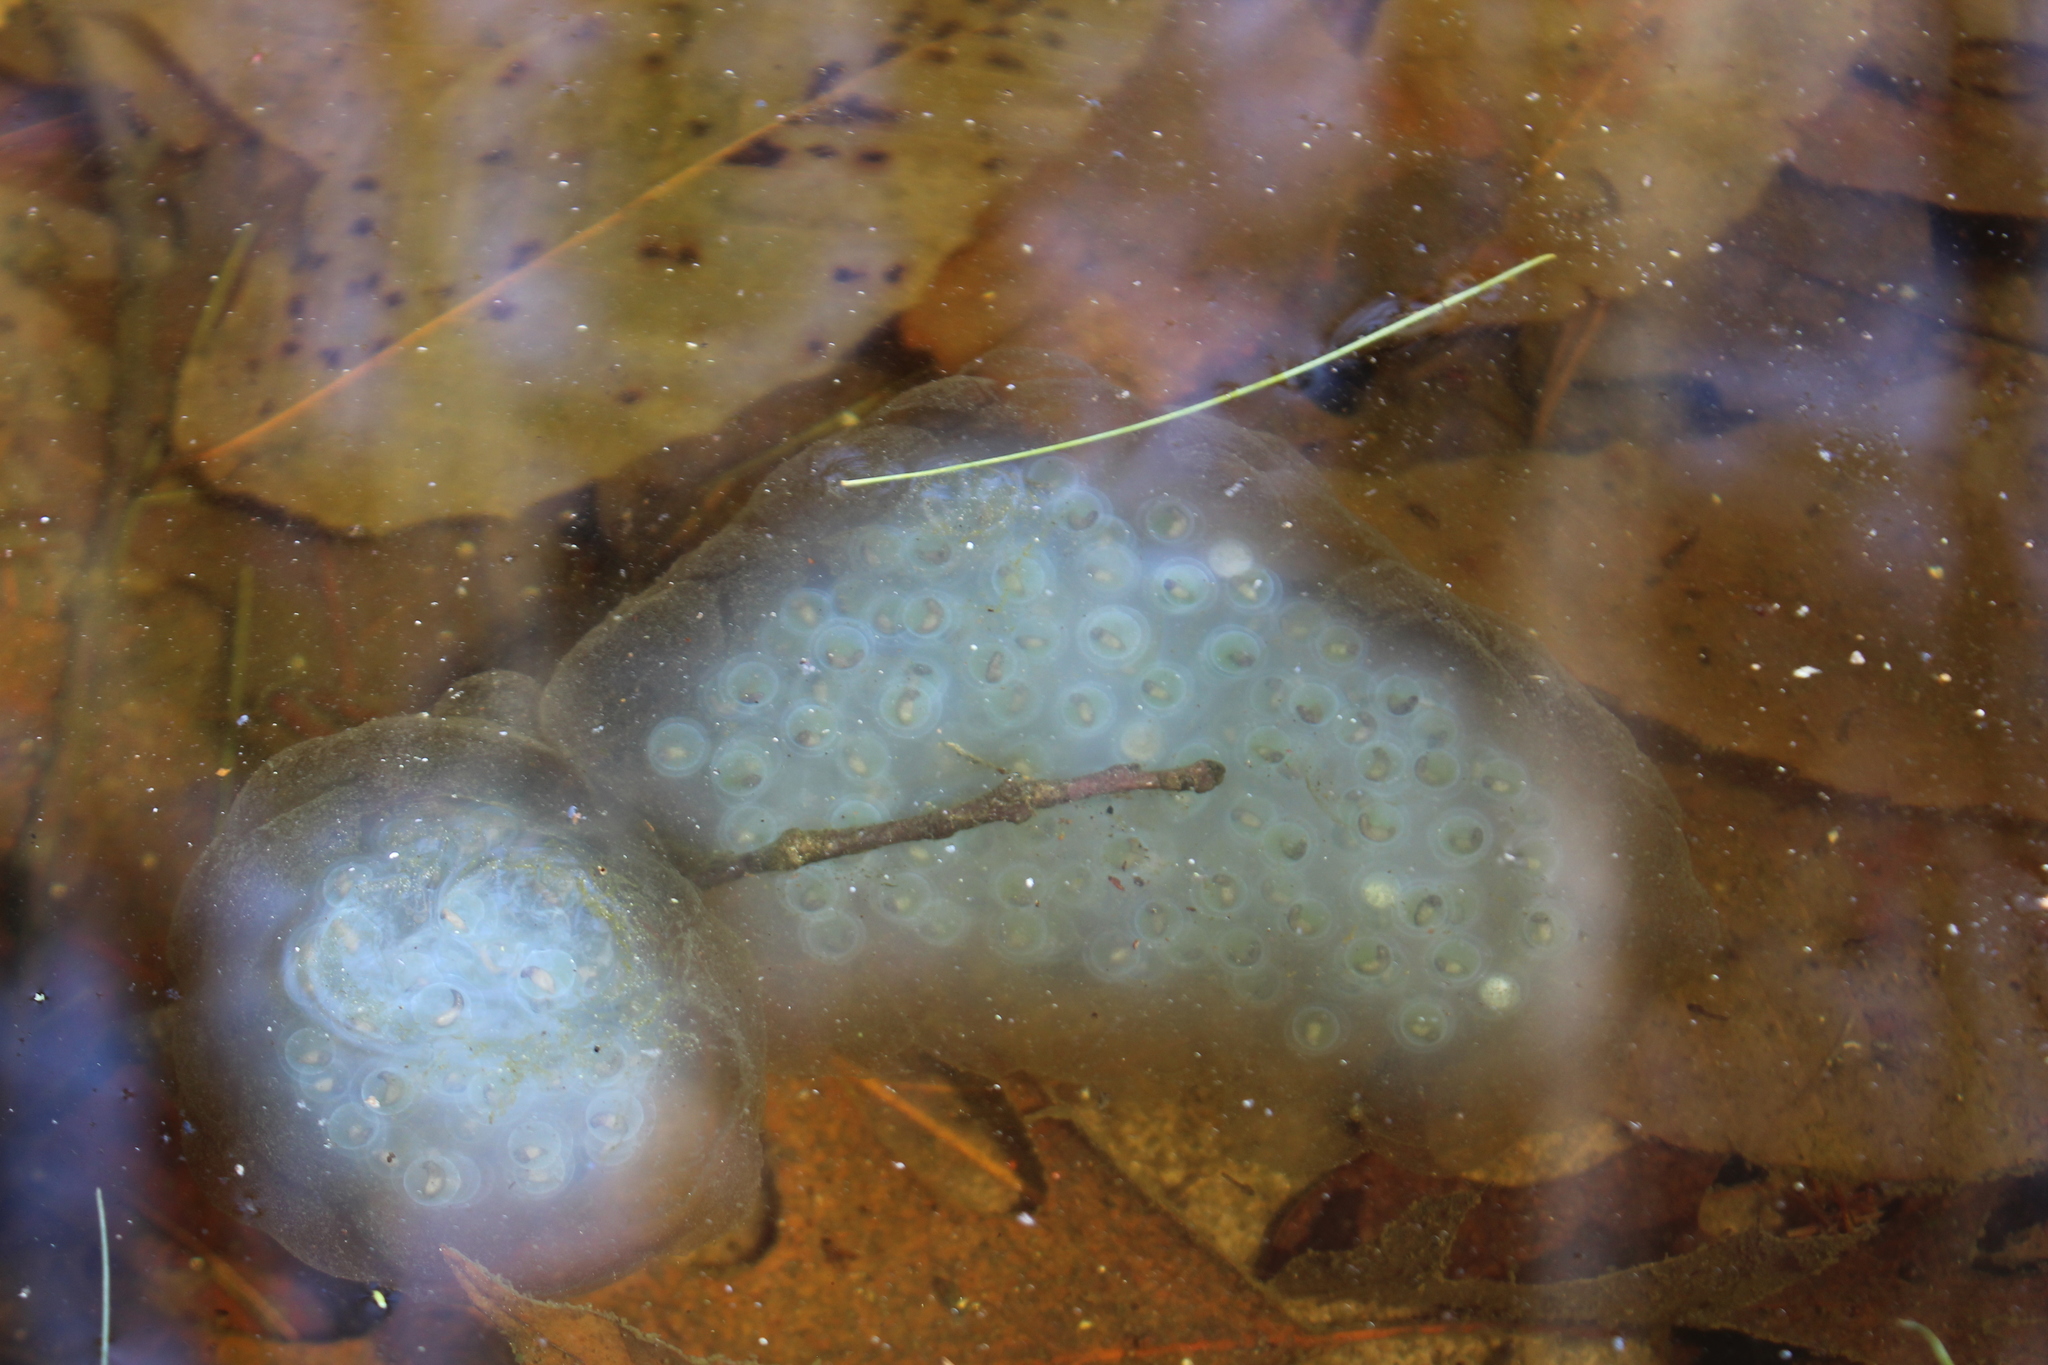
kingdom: Animalia
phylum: Chordata
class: Amphibia
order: Caudata
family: Ambystomatidae
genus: Ambystoma
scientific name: Ambystoma maculatum
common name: Spotted salamander
